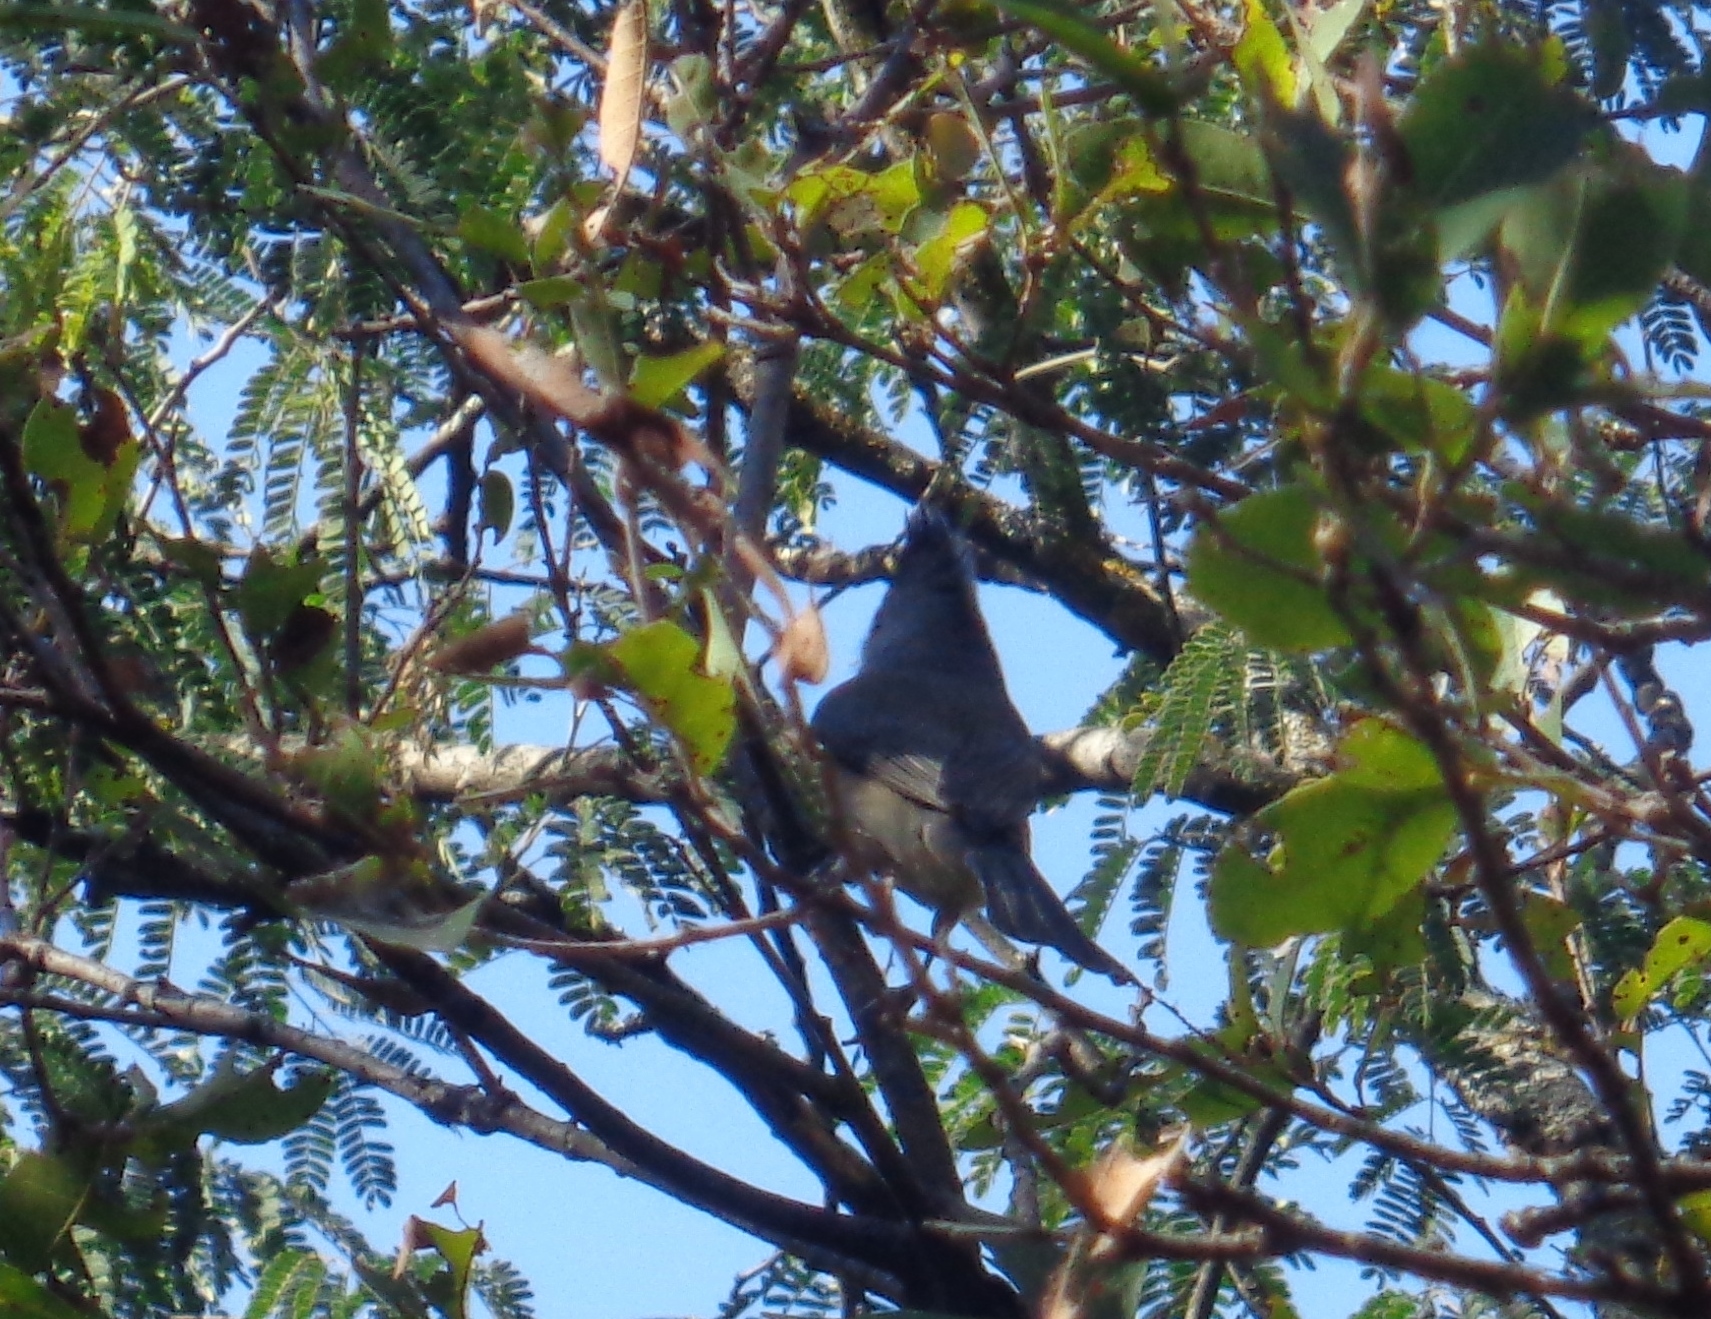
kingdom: Animalia
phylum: Chordata
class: Aves
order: Passeriformes
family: Paridae
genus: Baeolophus
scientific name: Baeolophus atricristatus
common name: Black-crested titmouse
